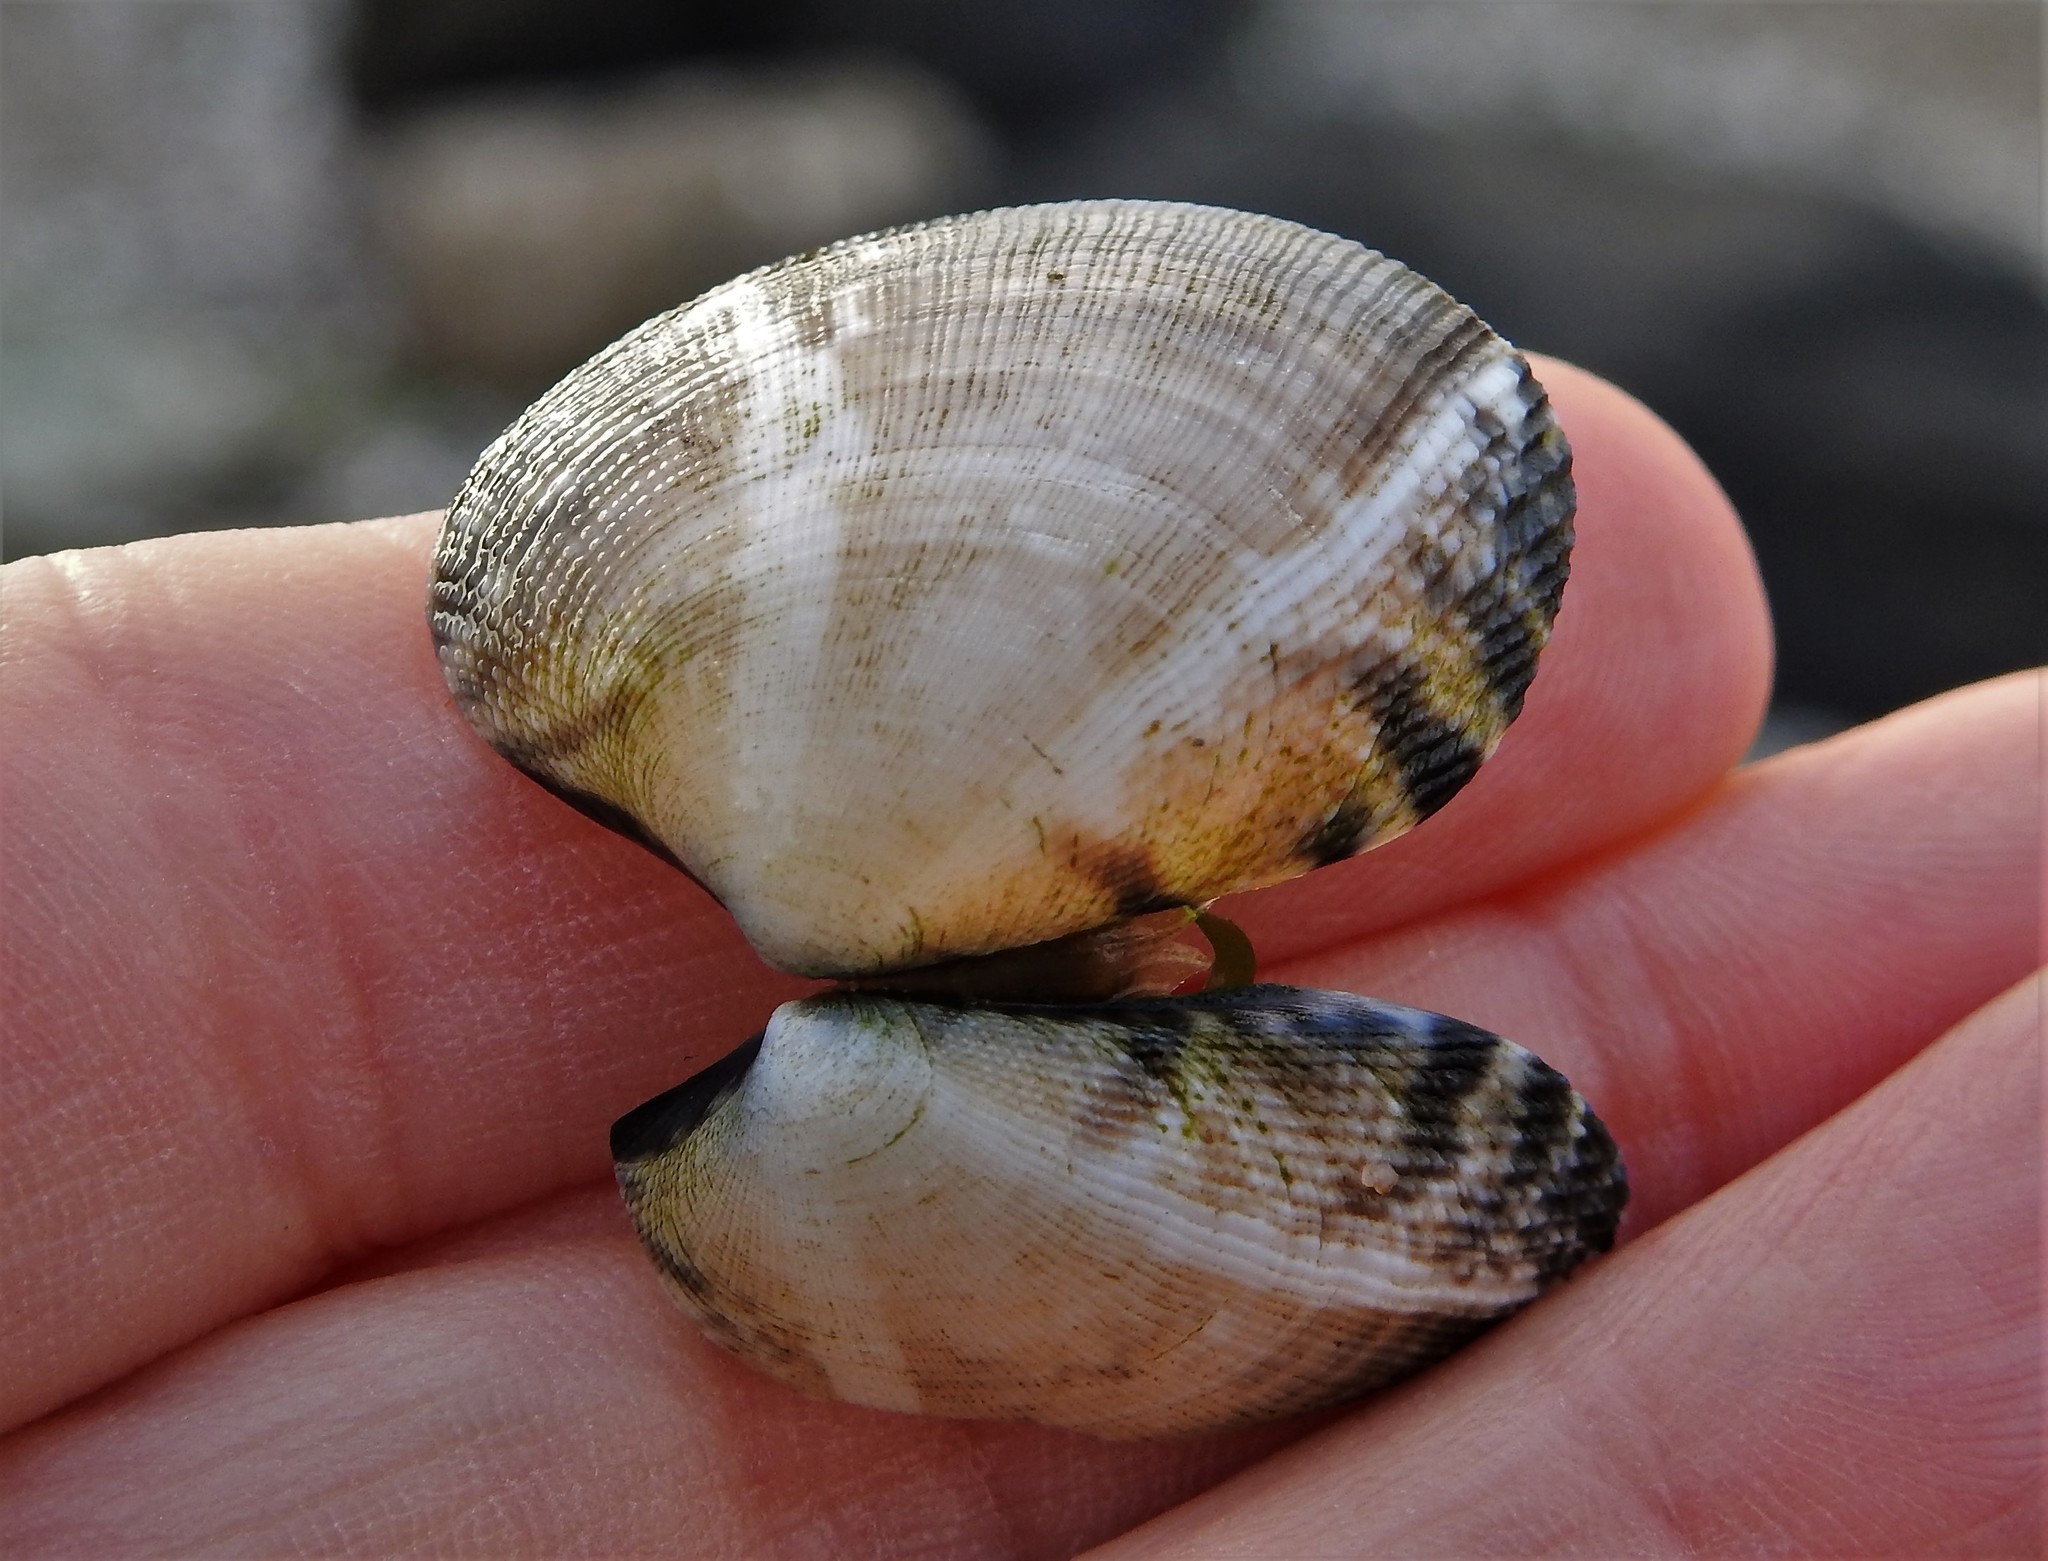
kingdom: Animalia
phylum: Mollusca
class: Bivalvia
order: Venerida
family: Veneridae
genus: Ruditapes
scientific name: Ruditapes philippinarum
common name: Manila clam
